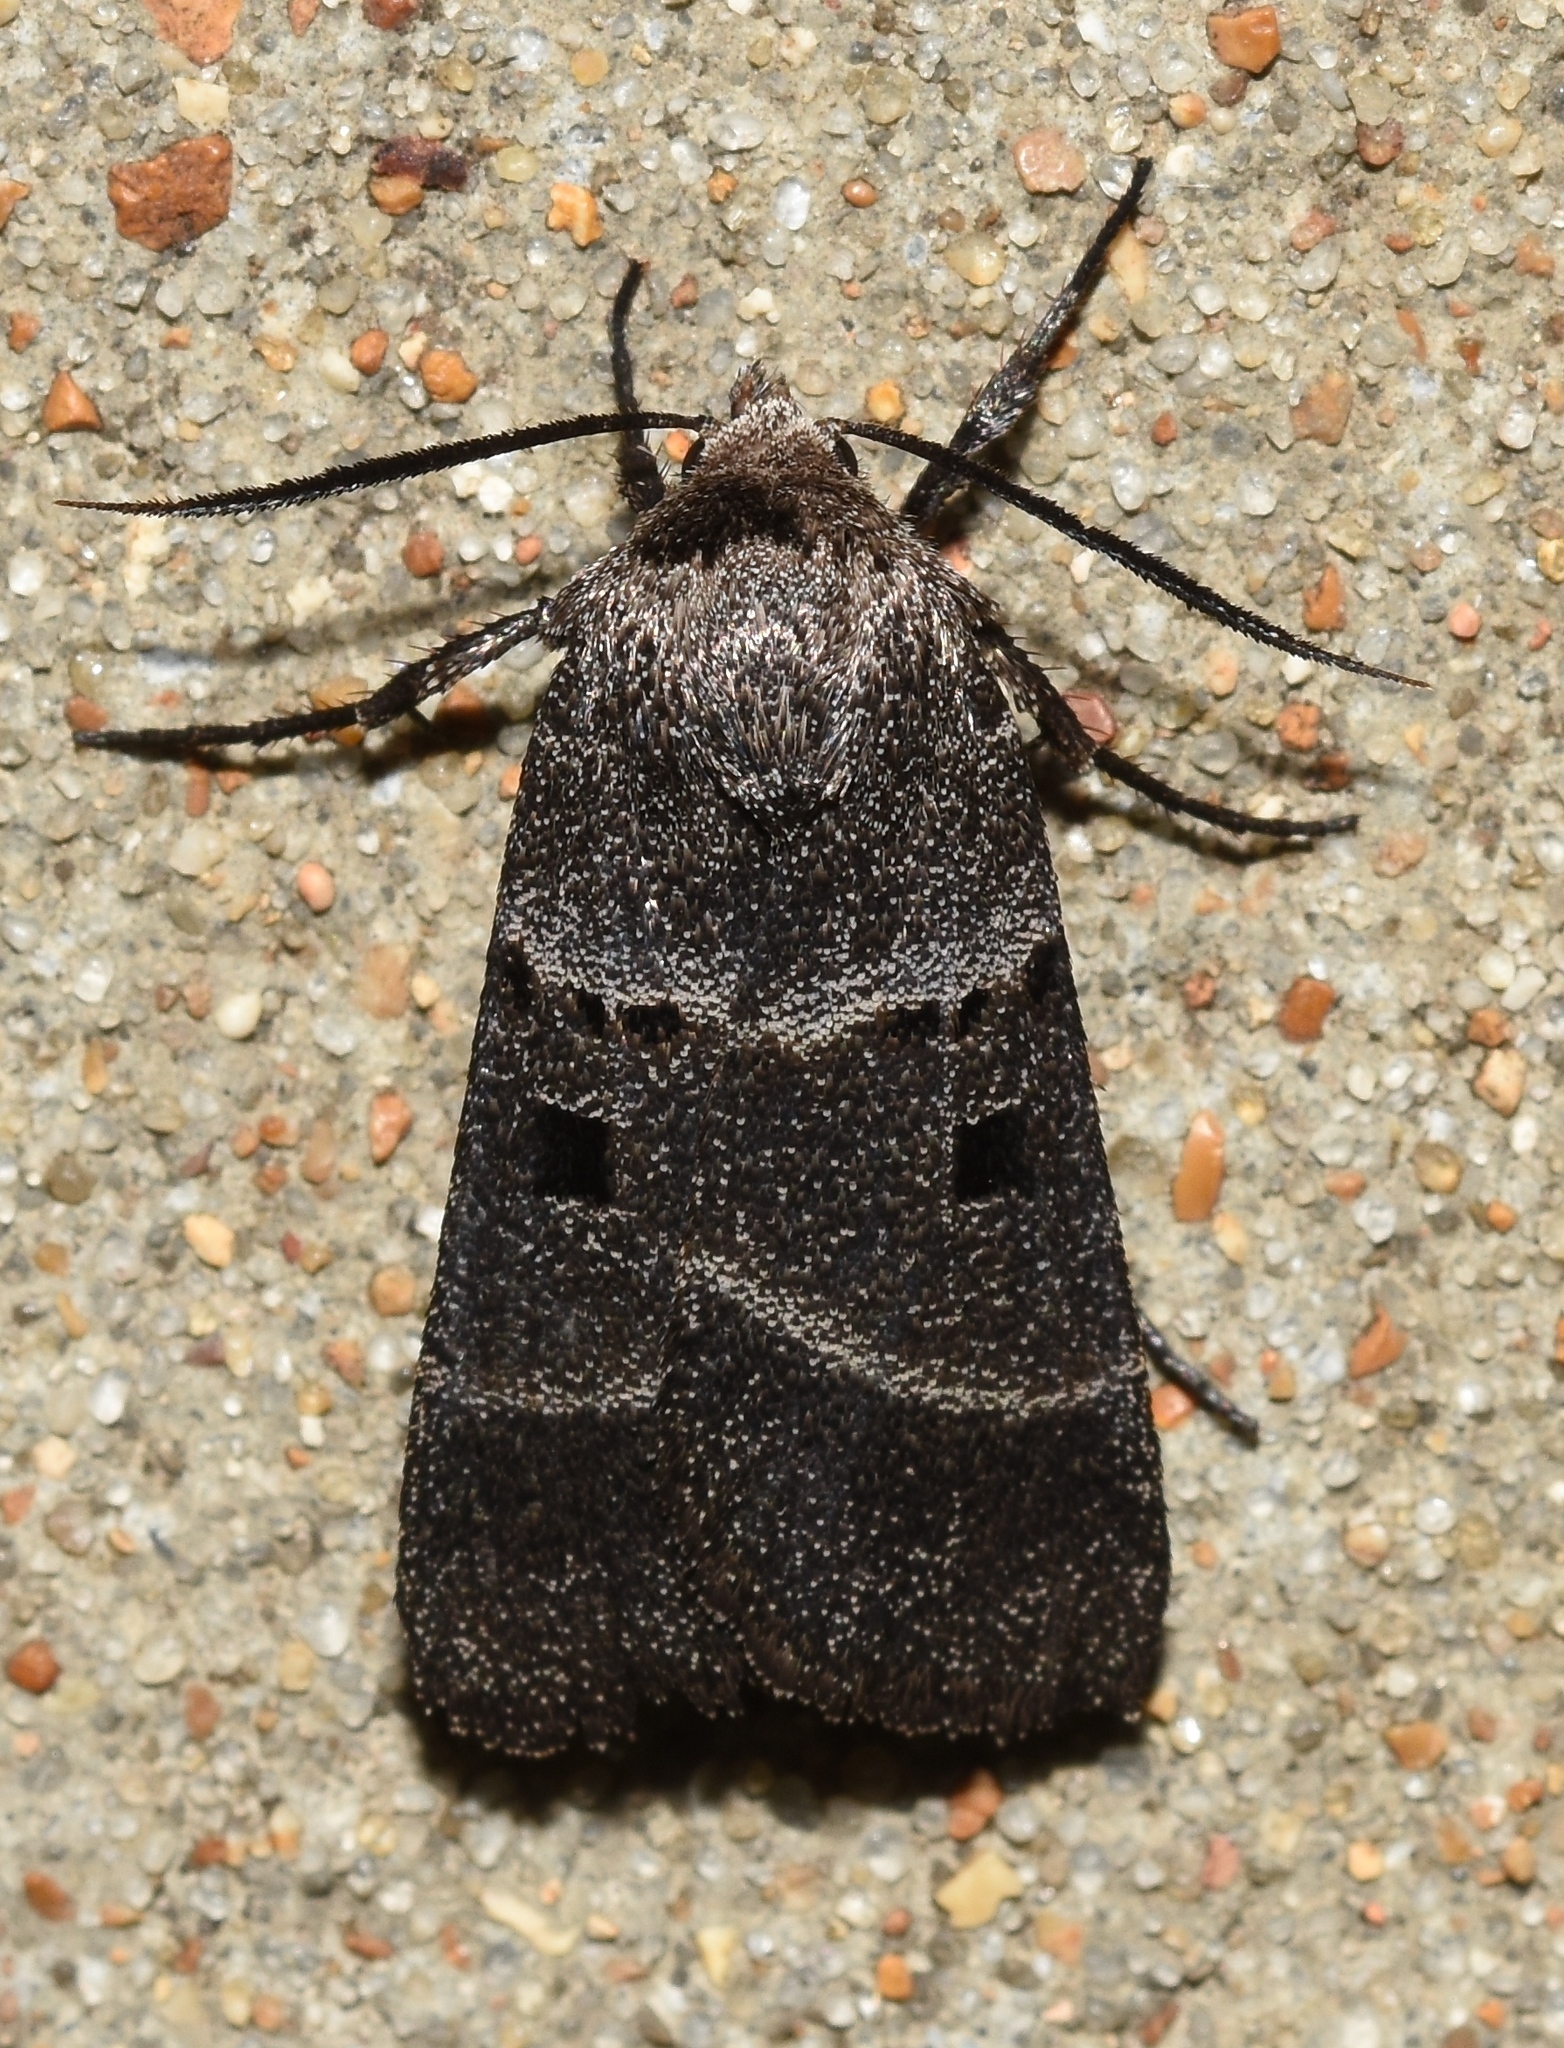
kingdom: Animalia
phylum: Arthropoda
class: Insecta
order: Lepidoptera
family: Noctuidae
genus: Agnorisma
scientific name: Agnorisma bollii
